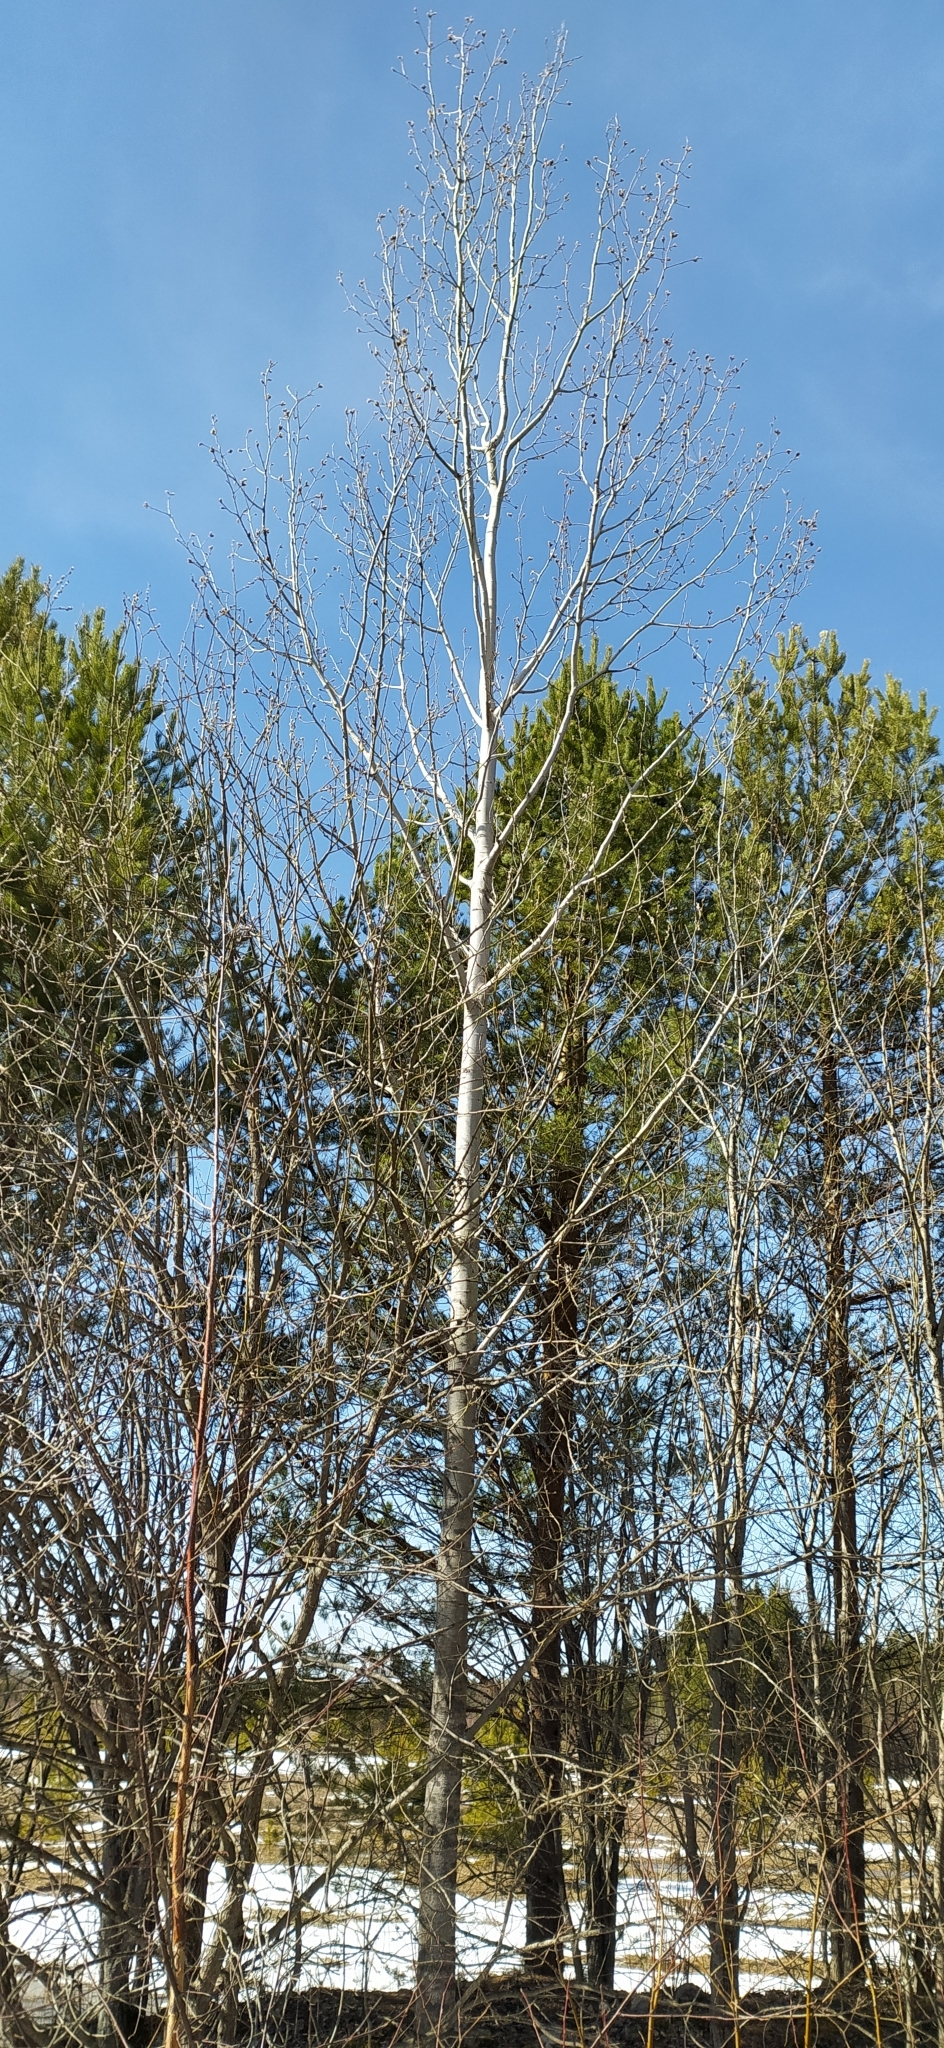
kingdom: Plantae
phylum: Tracheophyta
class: Magnoliopsida
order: Malpighiales
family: Salicaceae
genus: Populus
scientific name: Populus tremula
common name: European aspen
